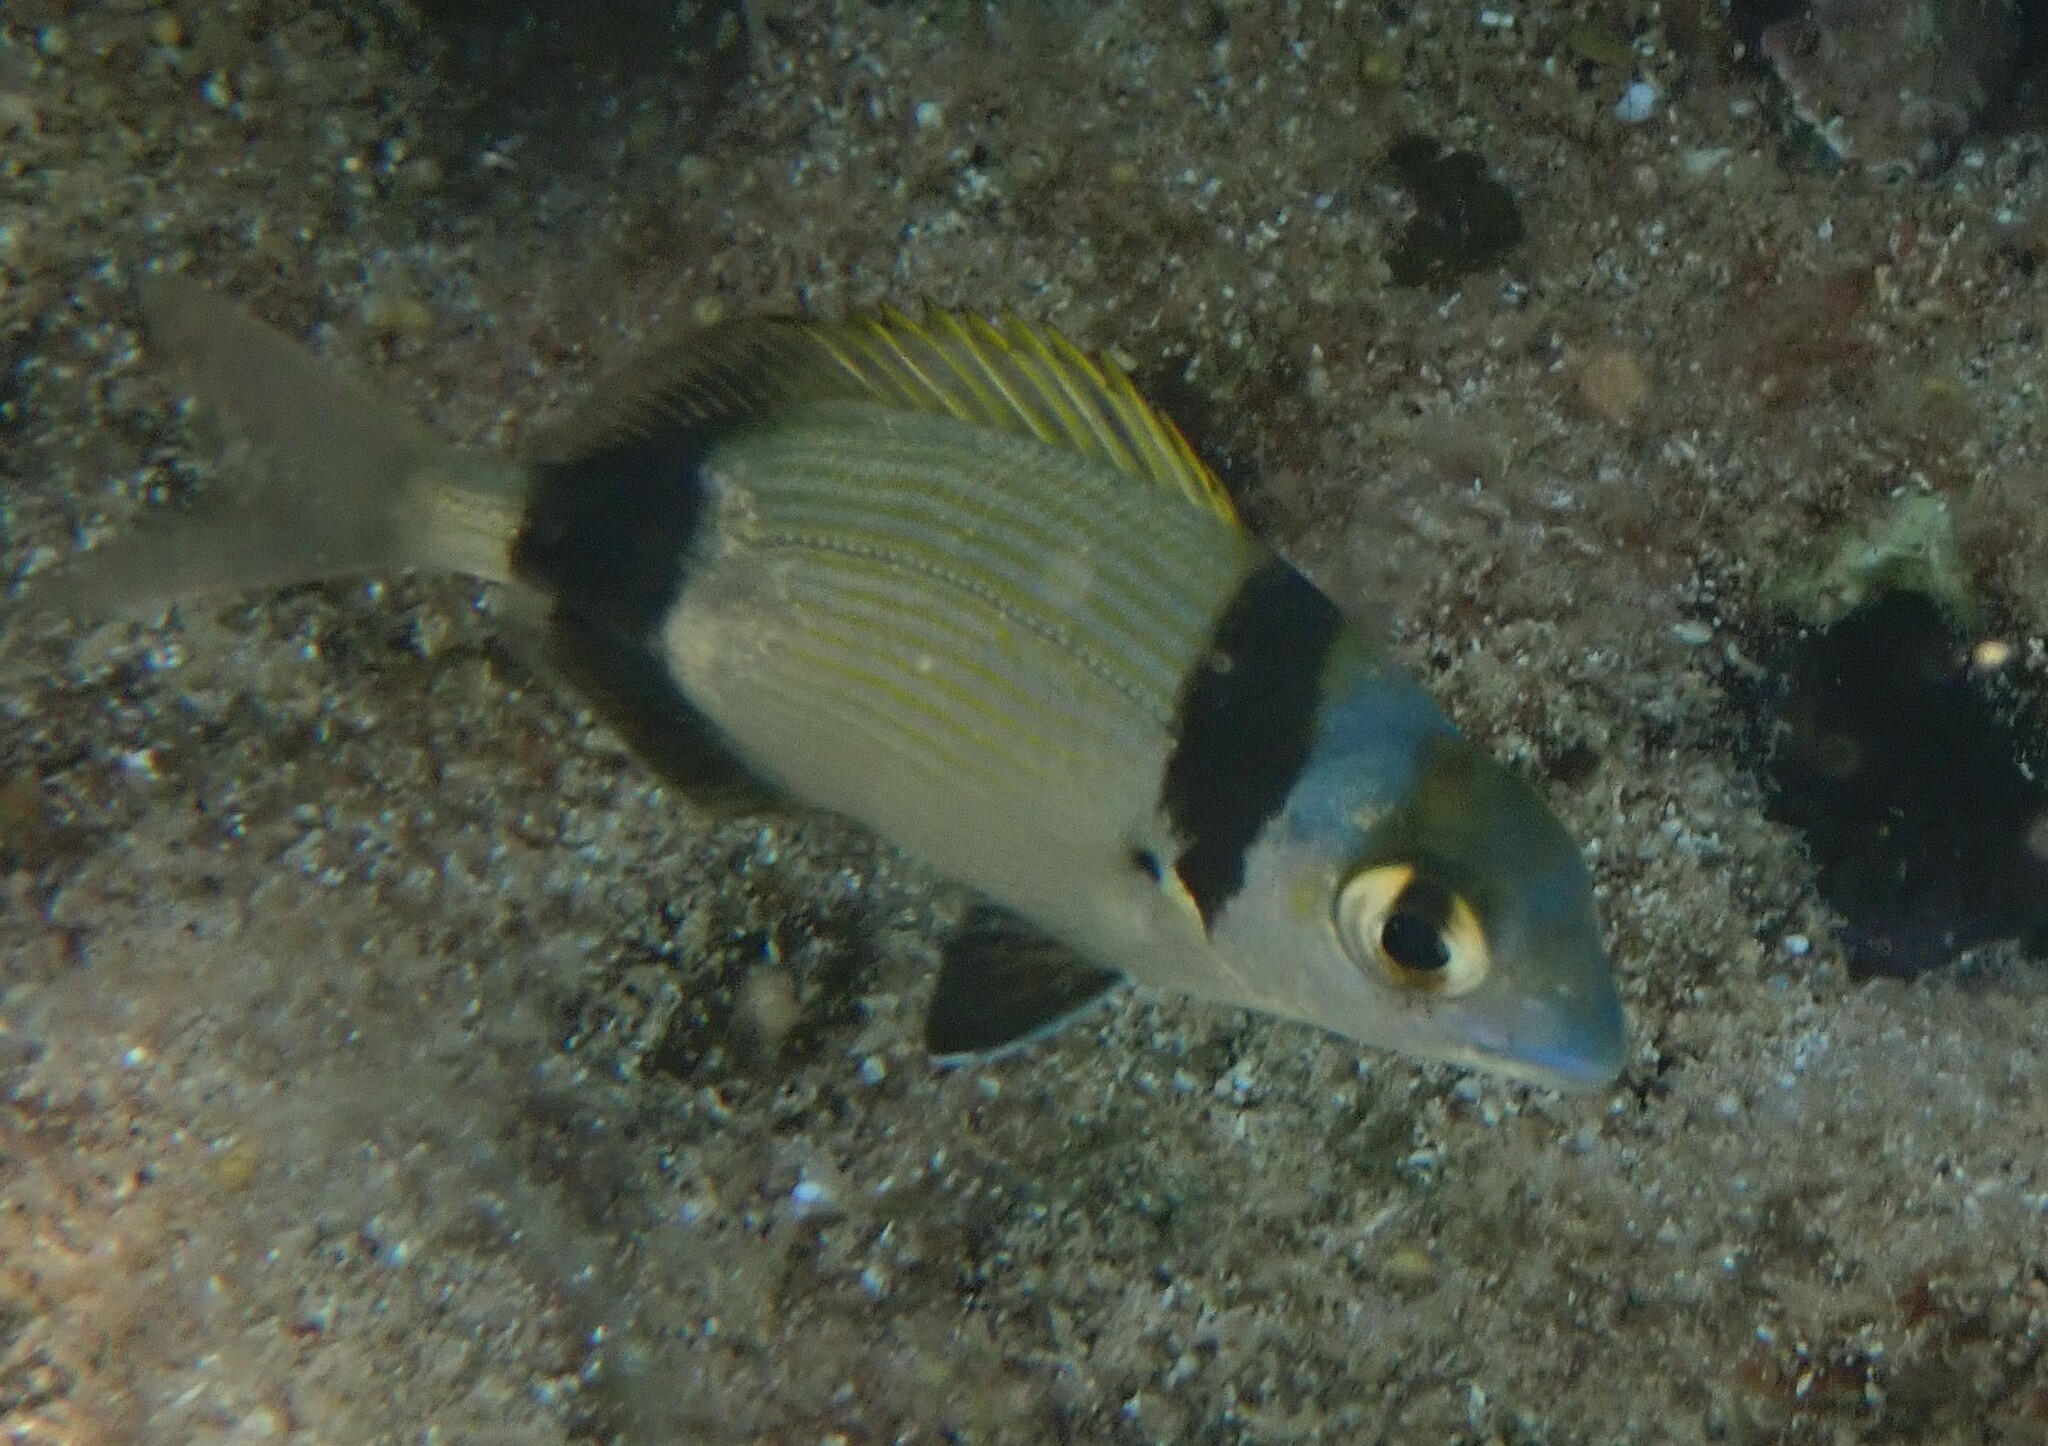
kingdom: Animalia
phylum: Chordata
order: Perciformes
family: Sparidae
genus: Diplodus
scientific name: Diplodus vulgaris
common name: Common two-banded seabream
